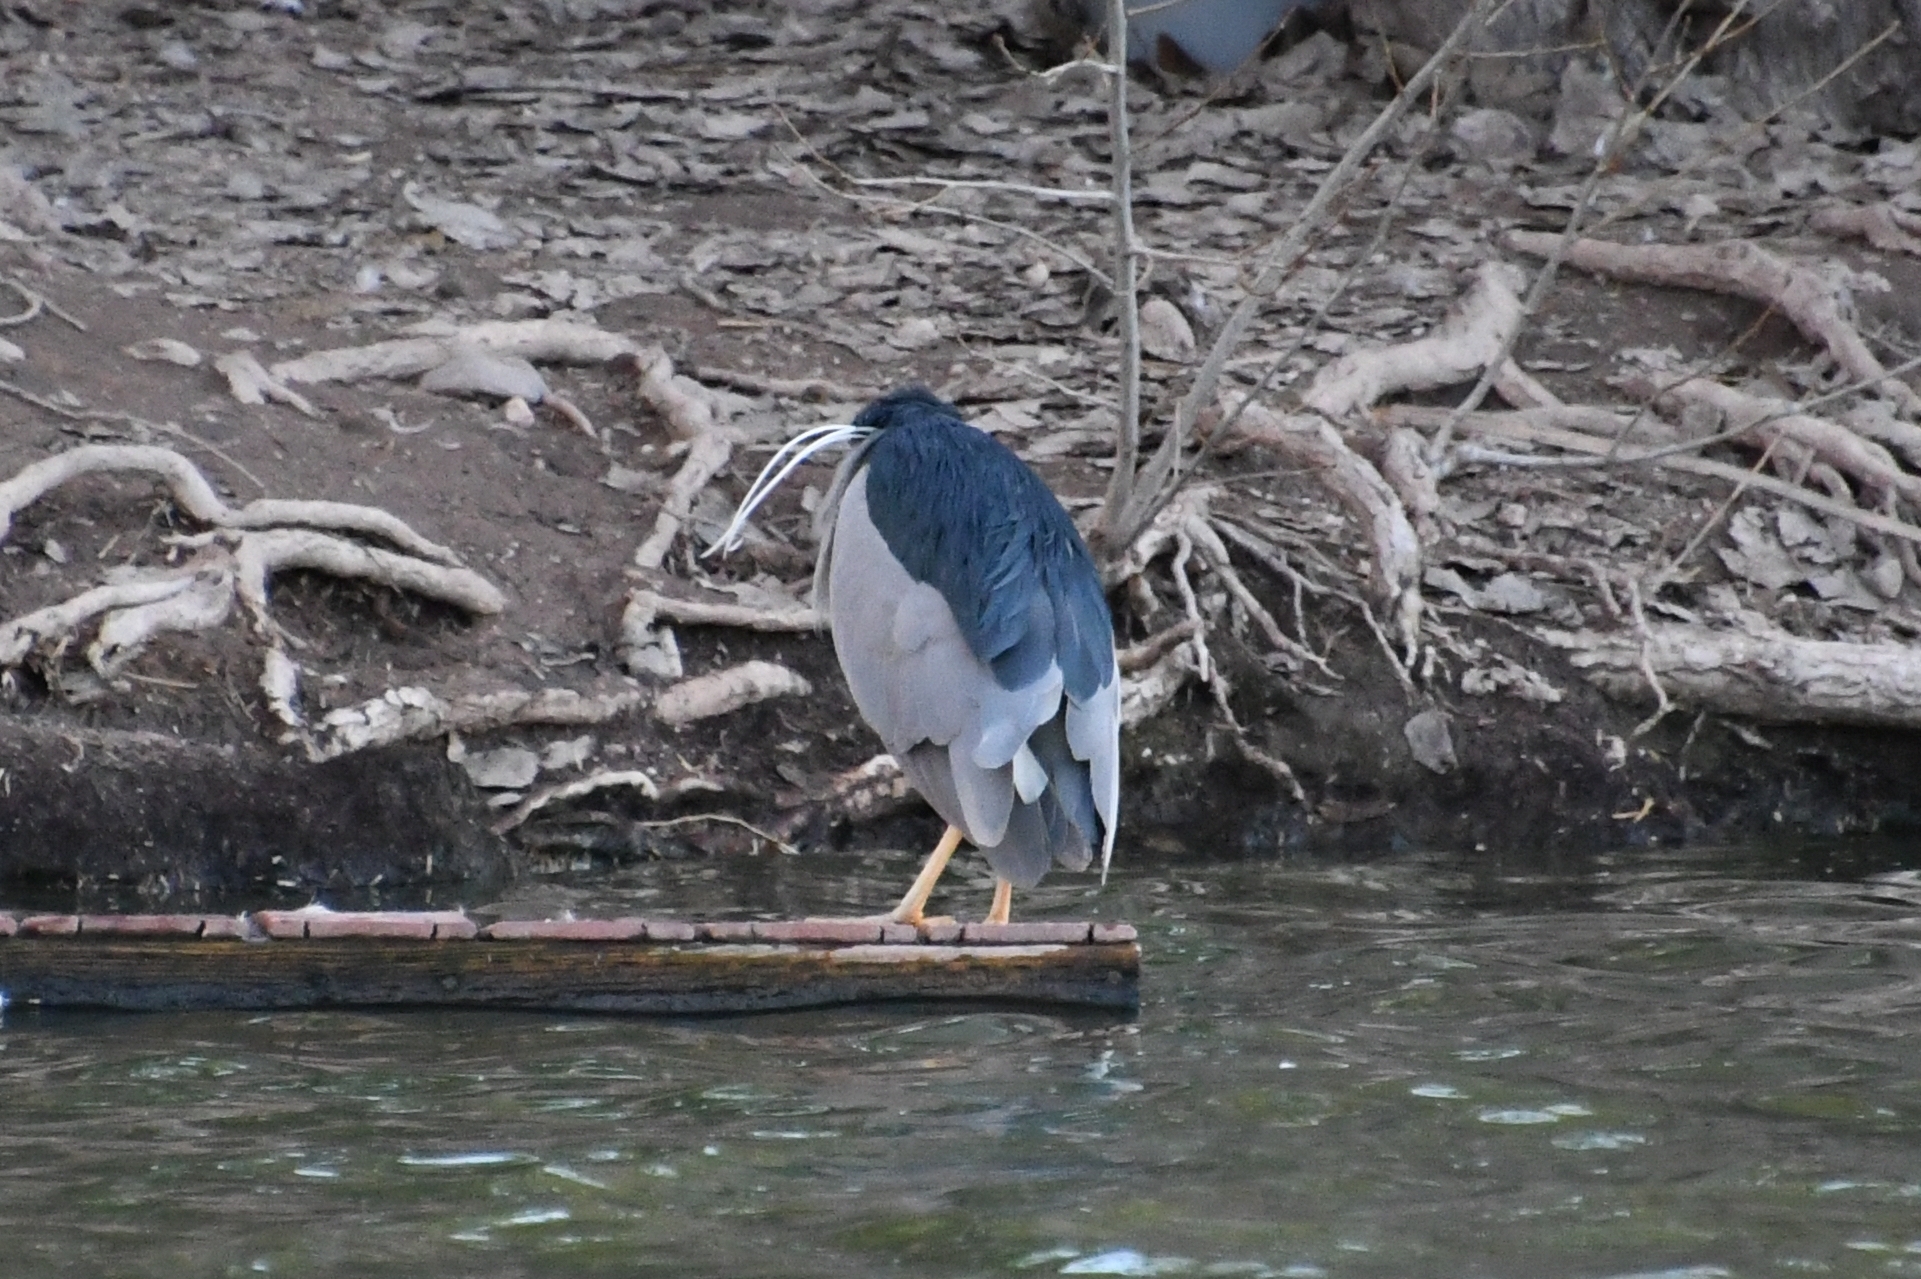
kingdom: Animalia
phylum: Chordata
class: Aves
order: Pelecaniformes
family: Ardeidae
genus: Nycticorax
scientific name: Nycticorax nycticorax
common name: Black-crowned night heron
